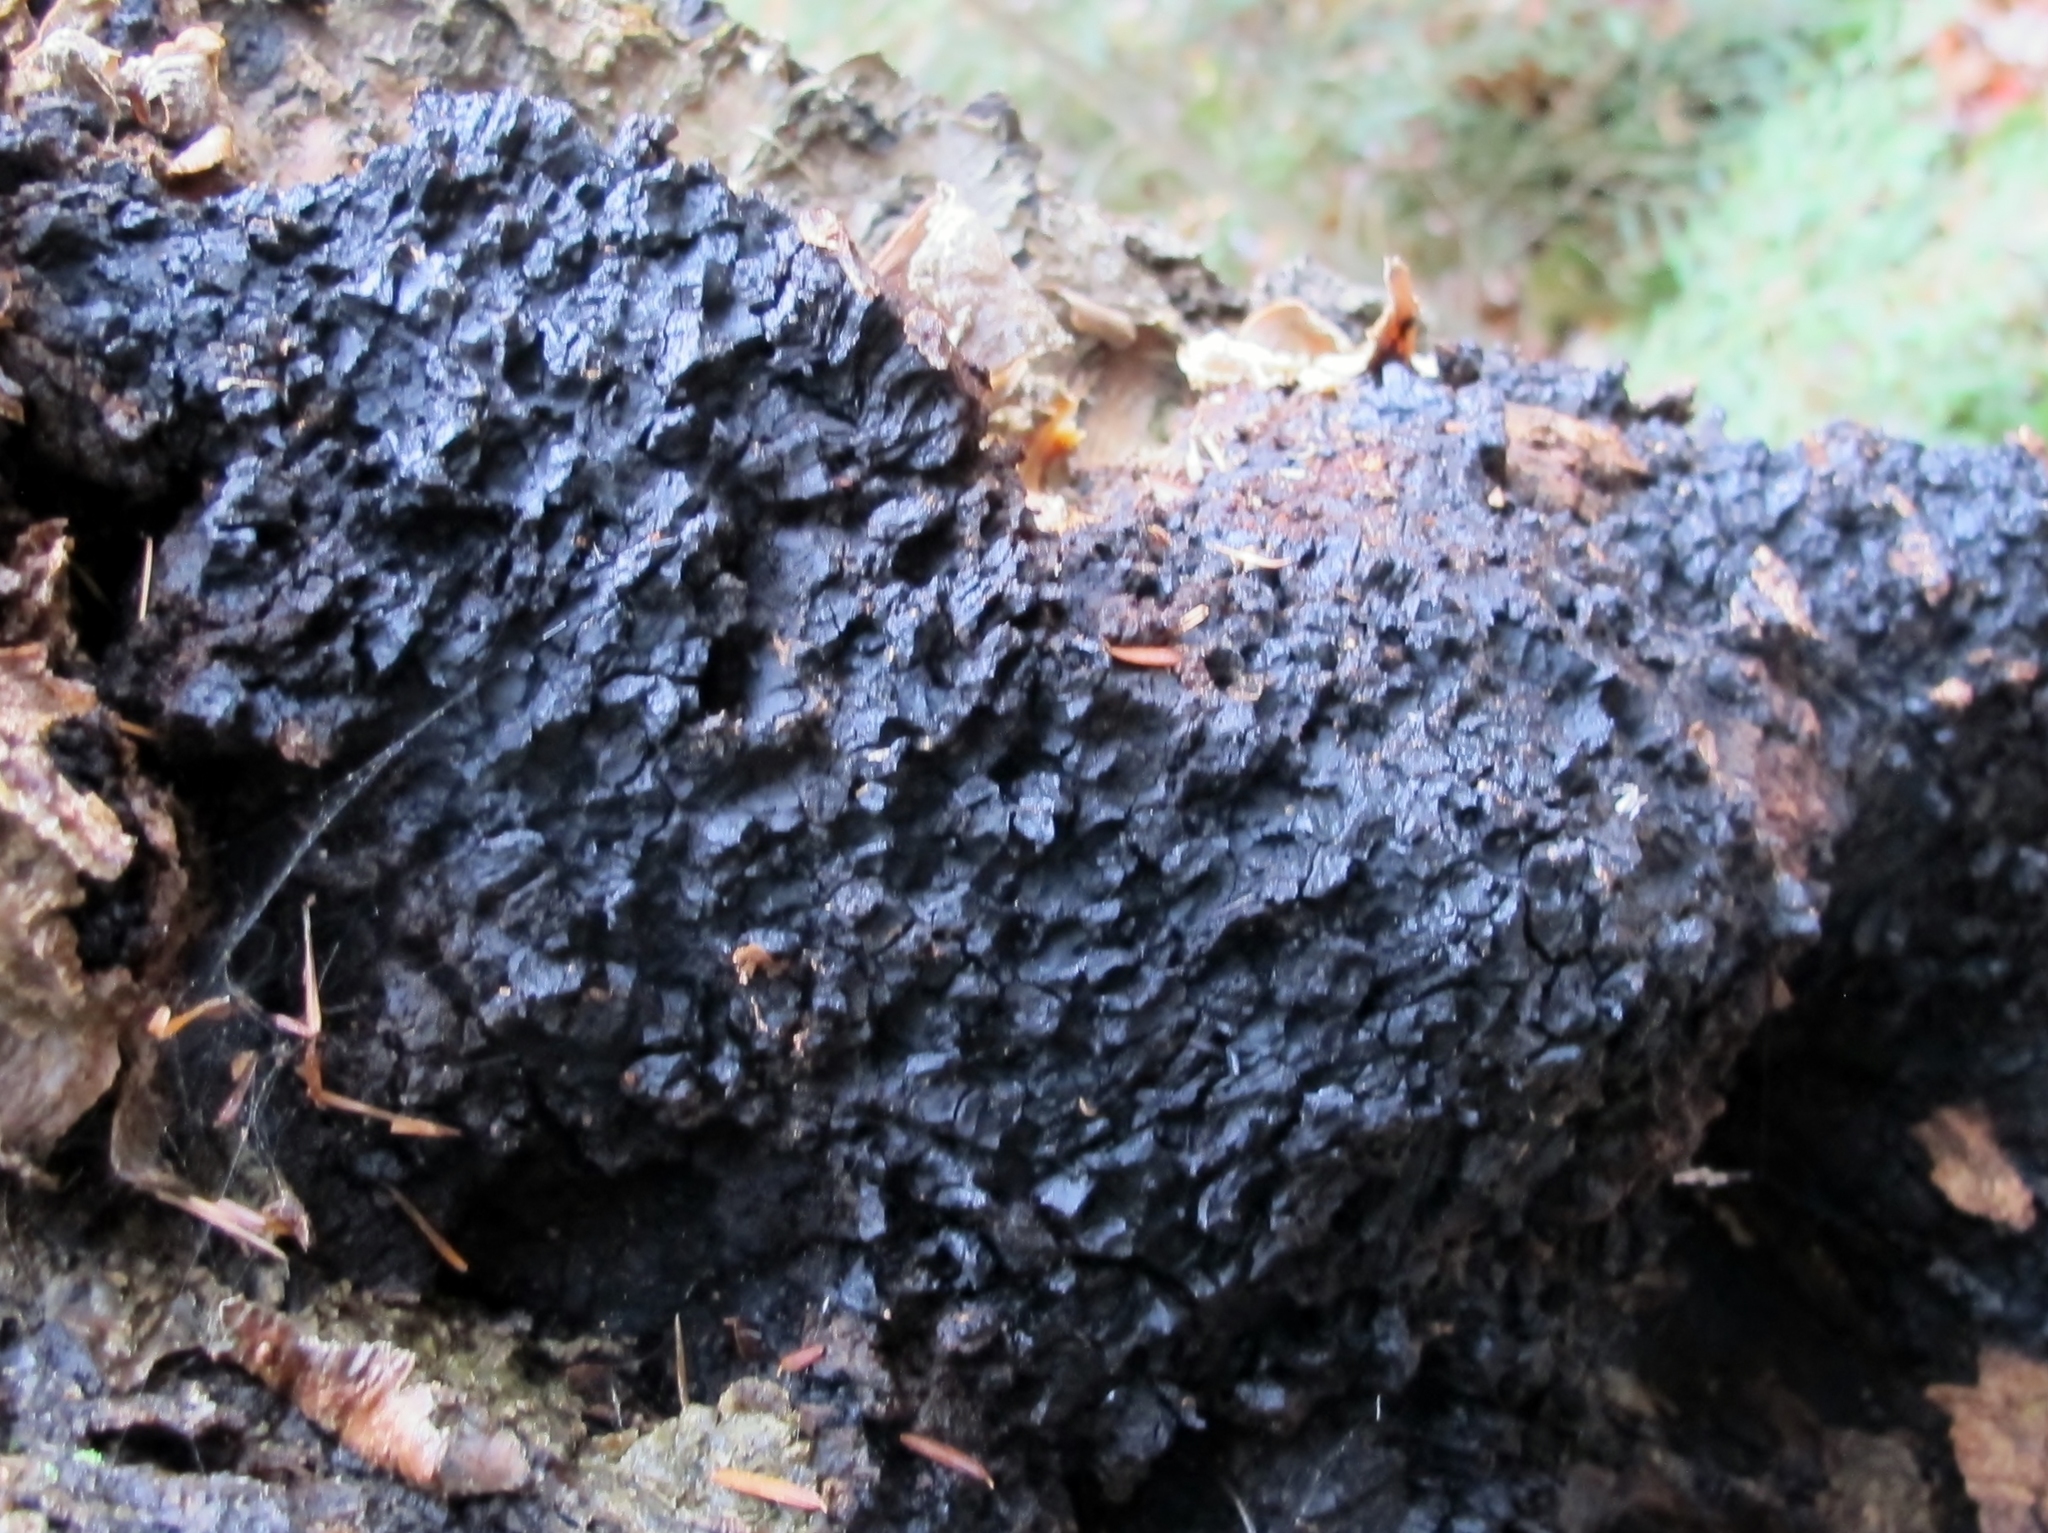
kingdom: Fungi
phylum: Basidiomycota
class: Agaricomycetes
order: Hymenochaetales
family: Hymenochaetaceae
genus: Inonotus
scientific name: Inonotus obliquus
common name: Chaga
